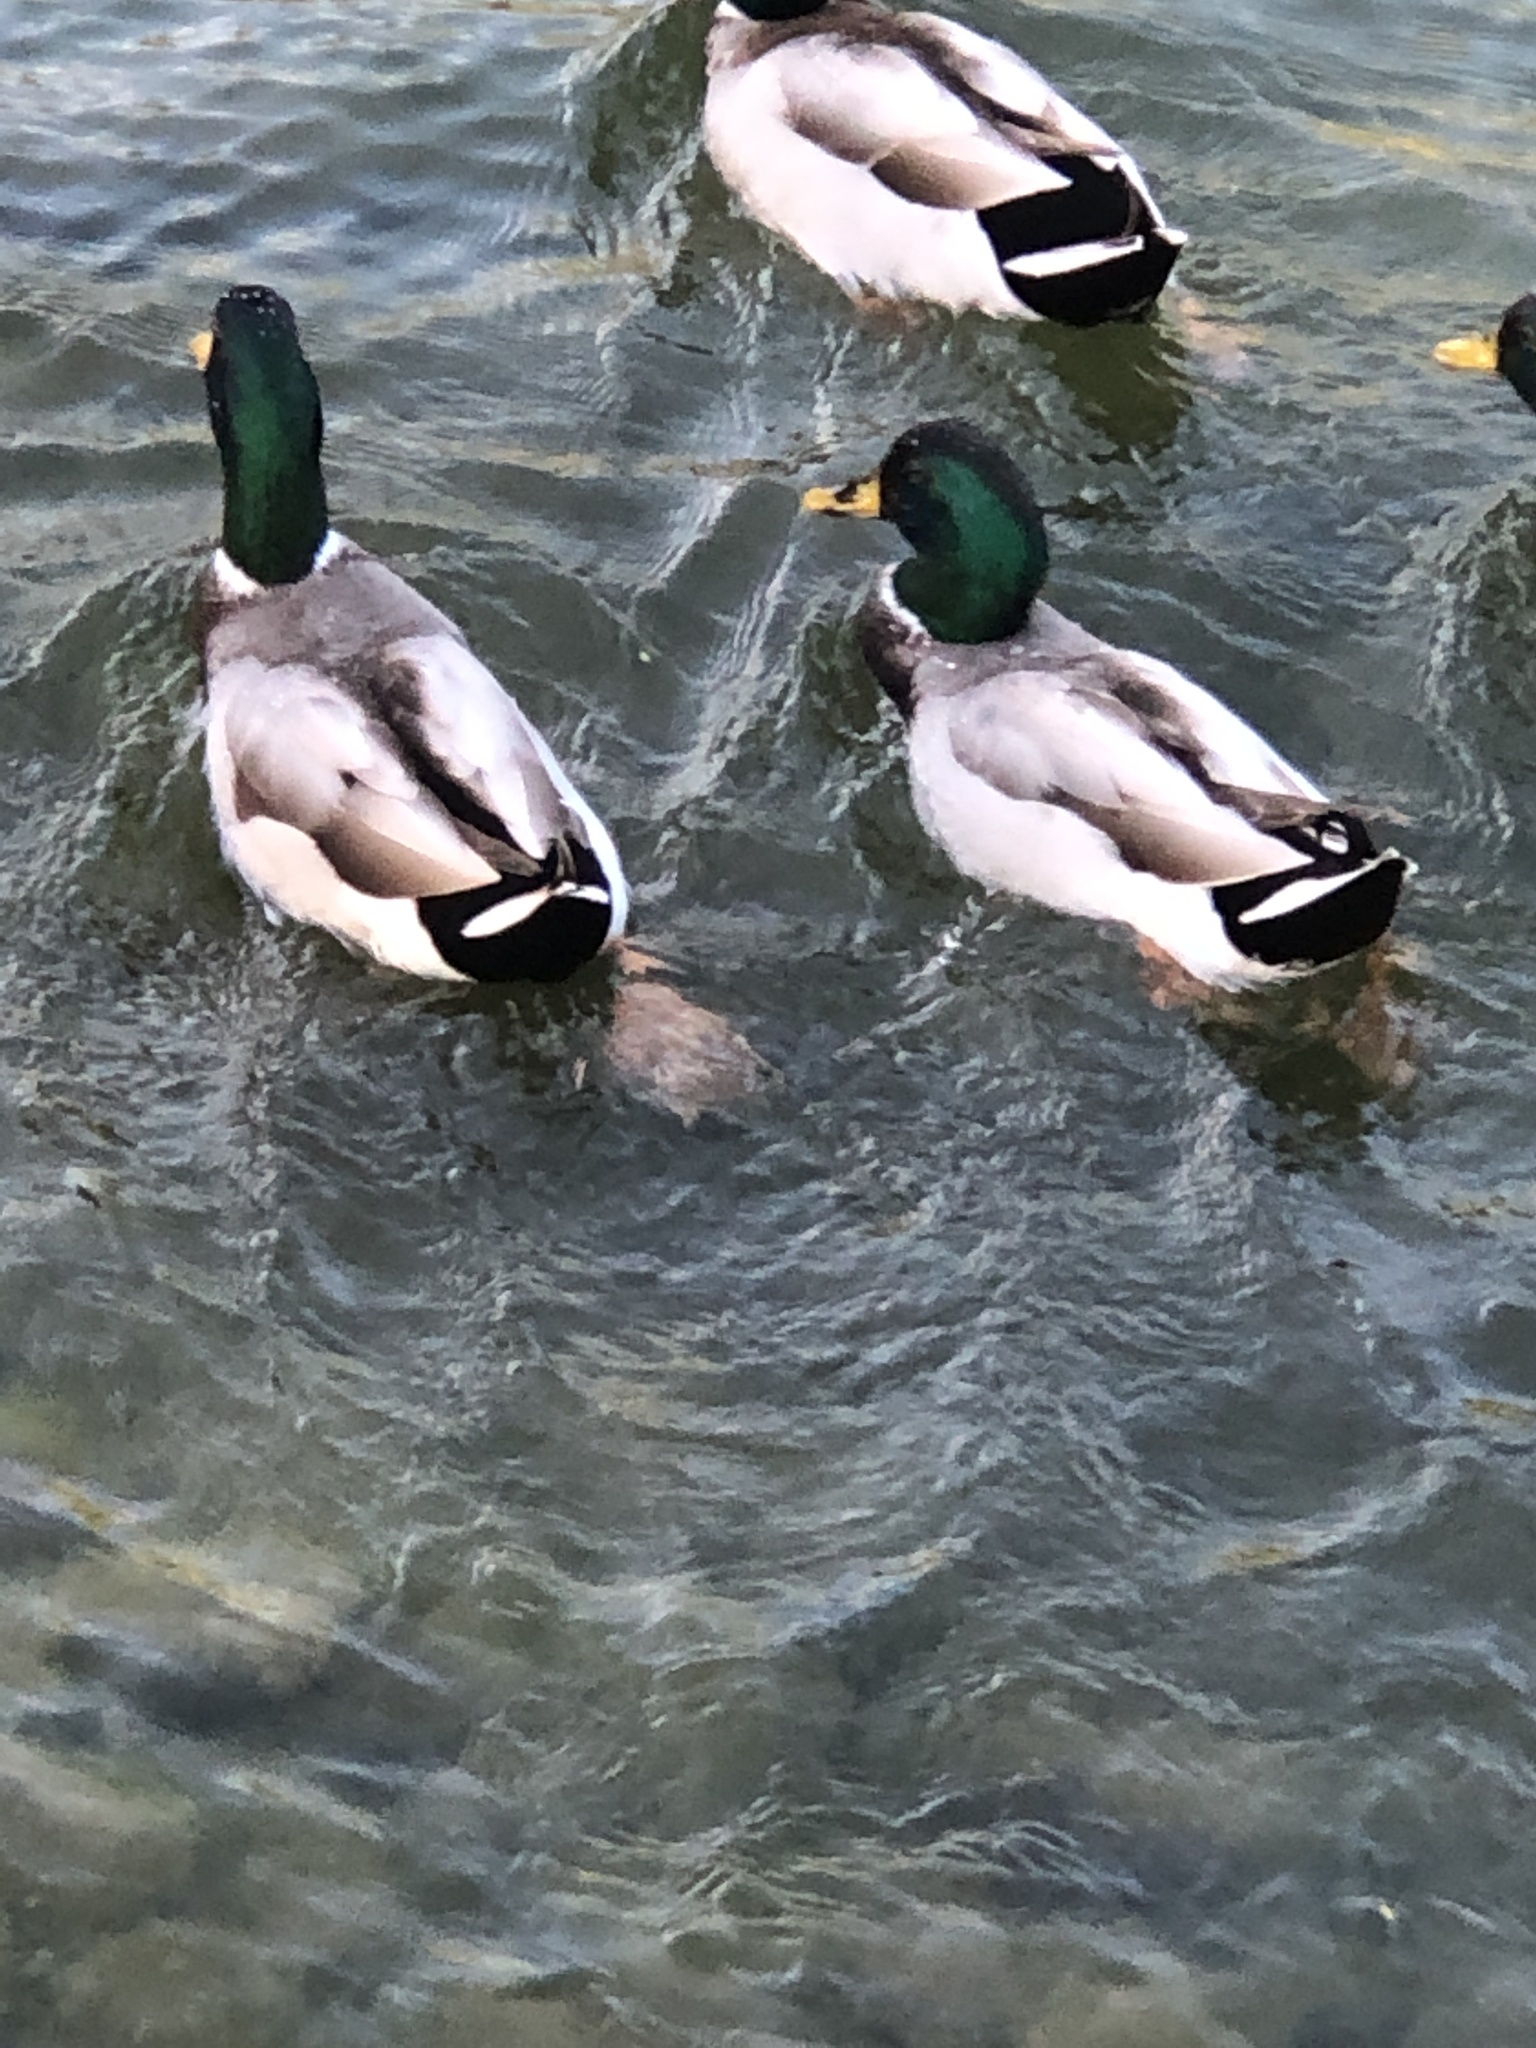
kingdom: Animalia
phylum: Chordata
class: Aves
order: Anseriformes
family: Anatidae
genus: Anas
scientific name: Anas platyrhynchos
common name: Mallard
